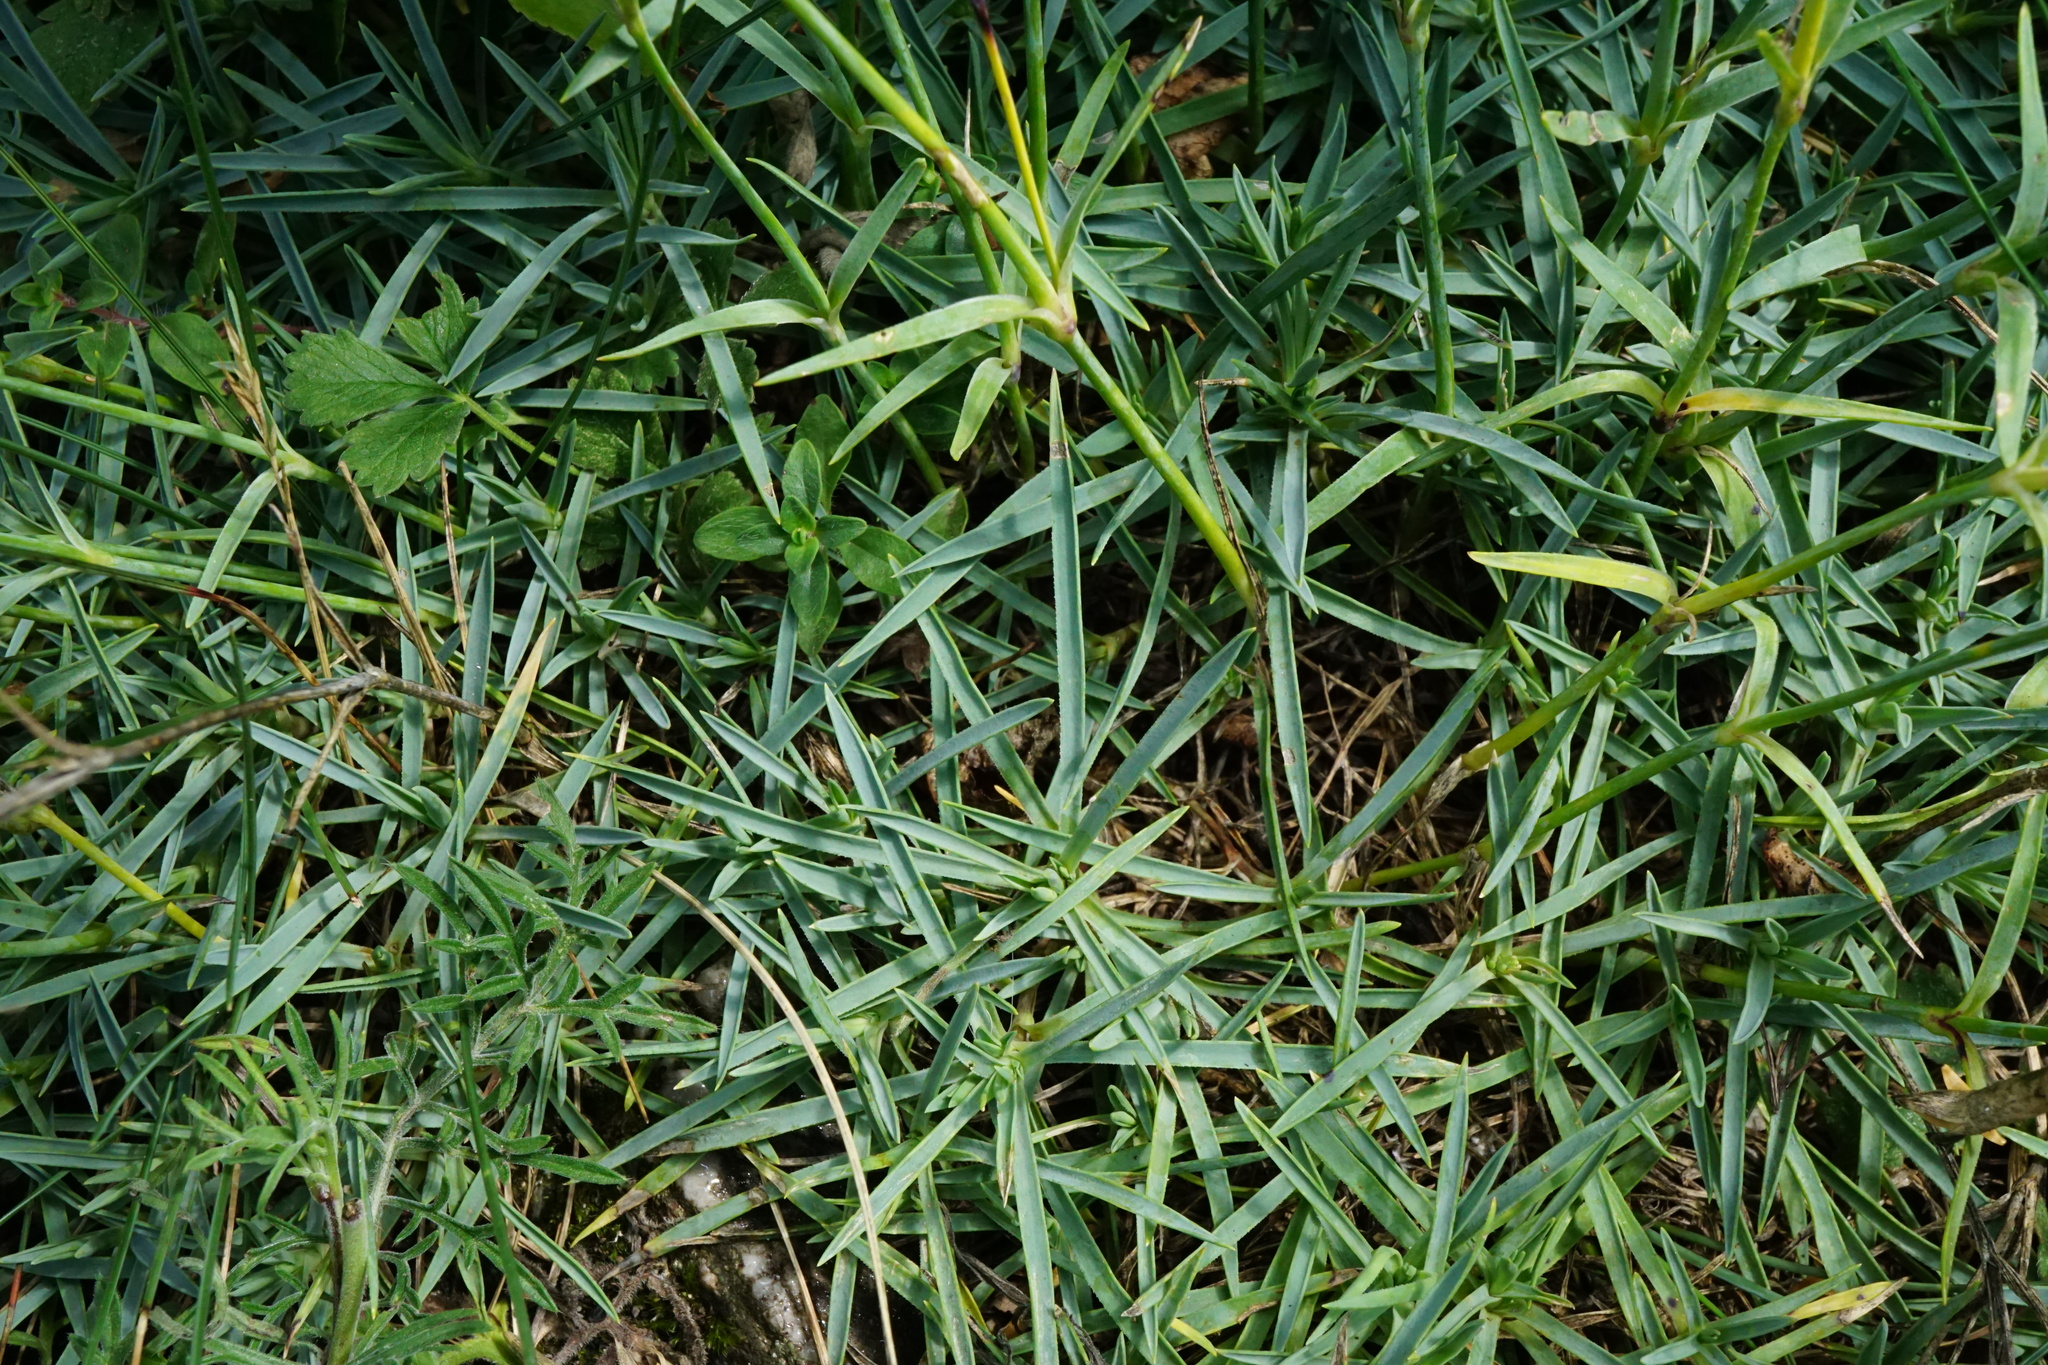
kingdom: Plantae
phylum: Tracheophyta
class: Magnoliopsida
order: Caryophyllales
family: Caryophyllaceae
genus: Dianthus
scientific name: Dianthus praecox
